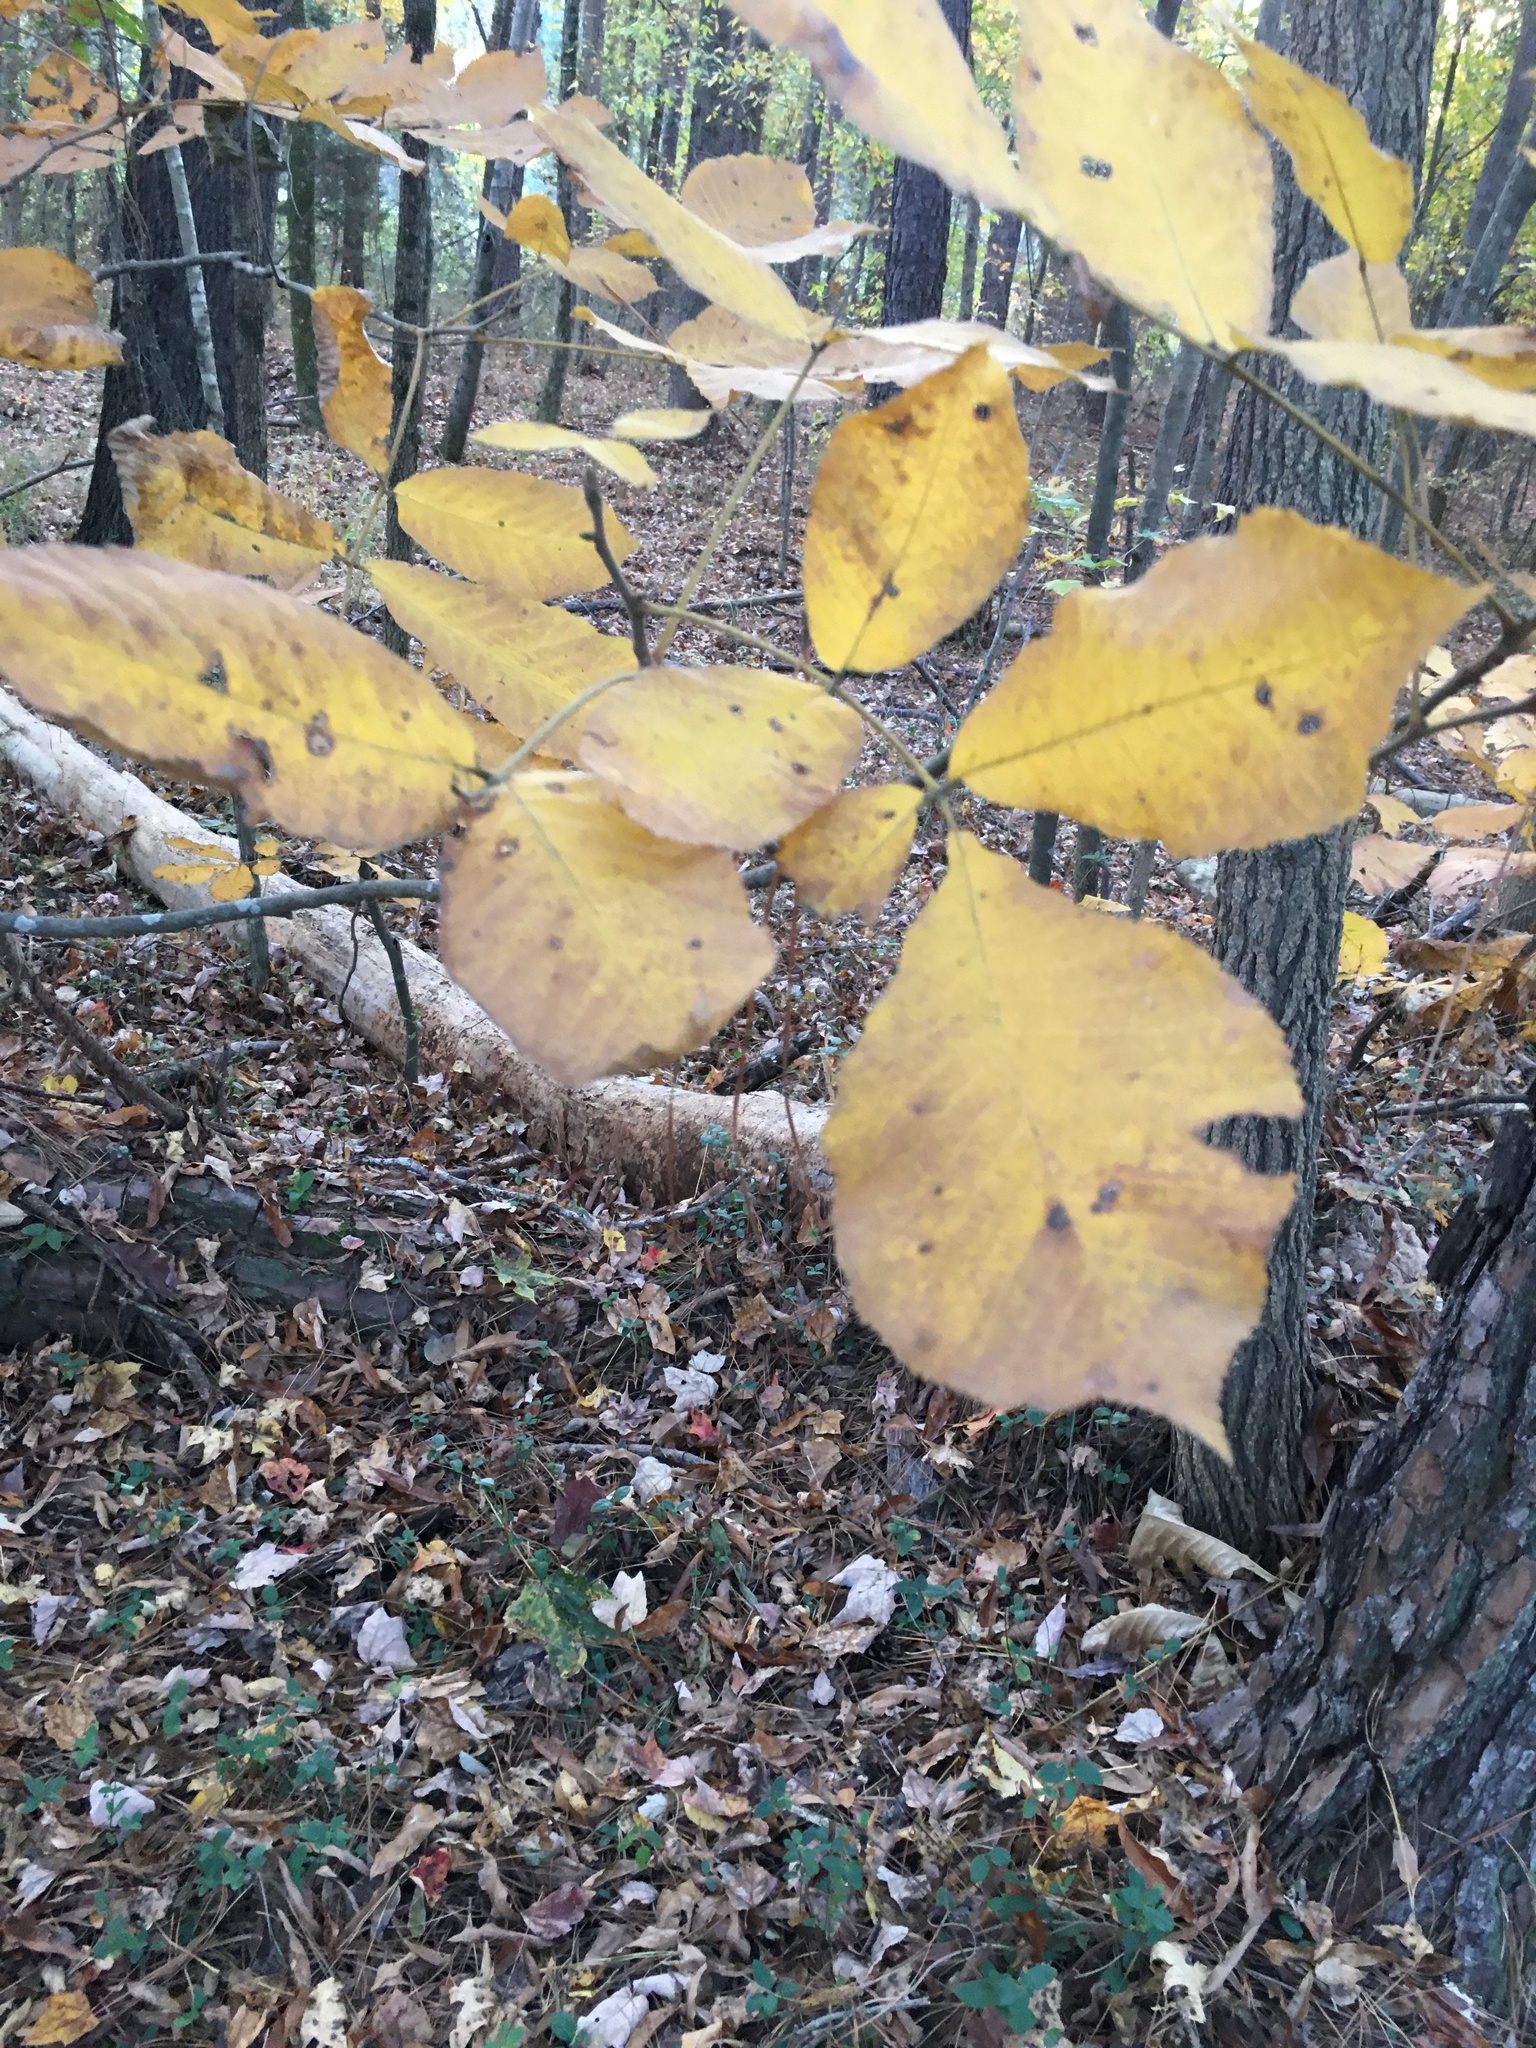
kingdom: Plantae
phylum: Tracheophyta
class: Magnoliopsida
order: Fagales
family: Juglandaceae
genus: Carya
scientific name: Carya ovata
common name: Shagbark hickory
